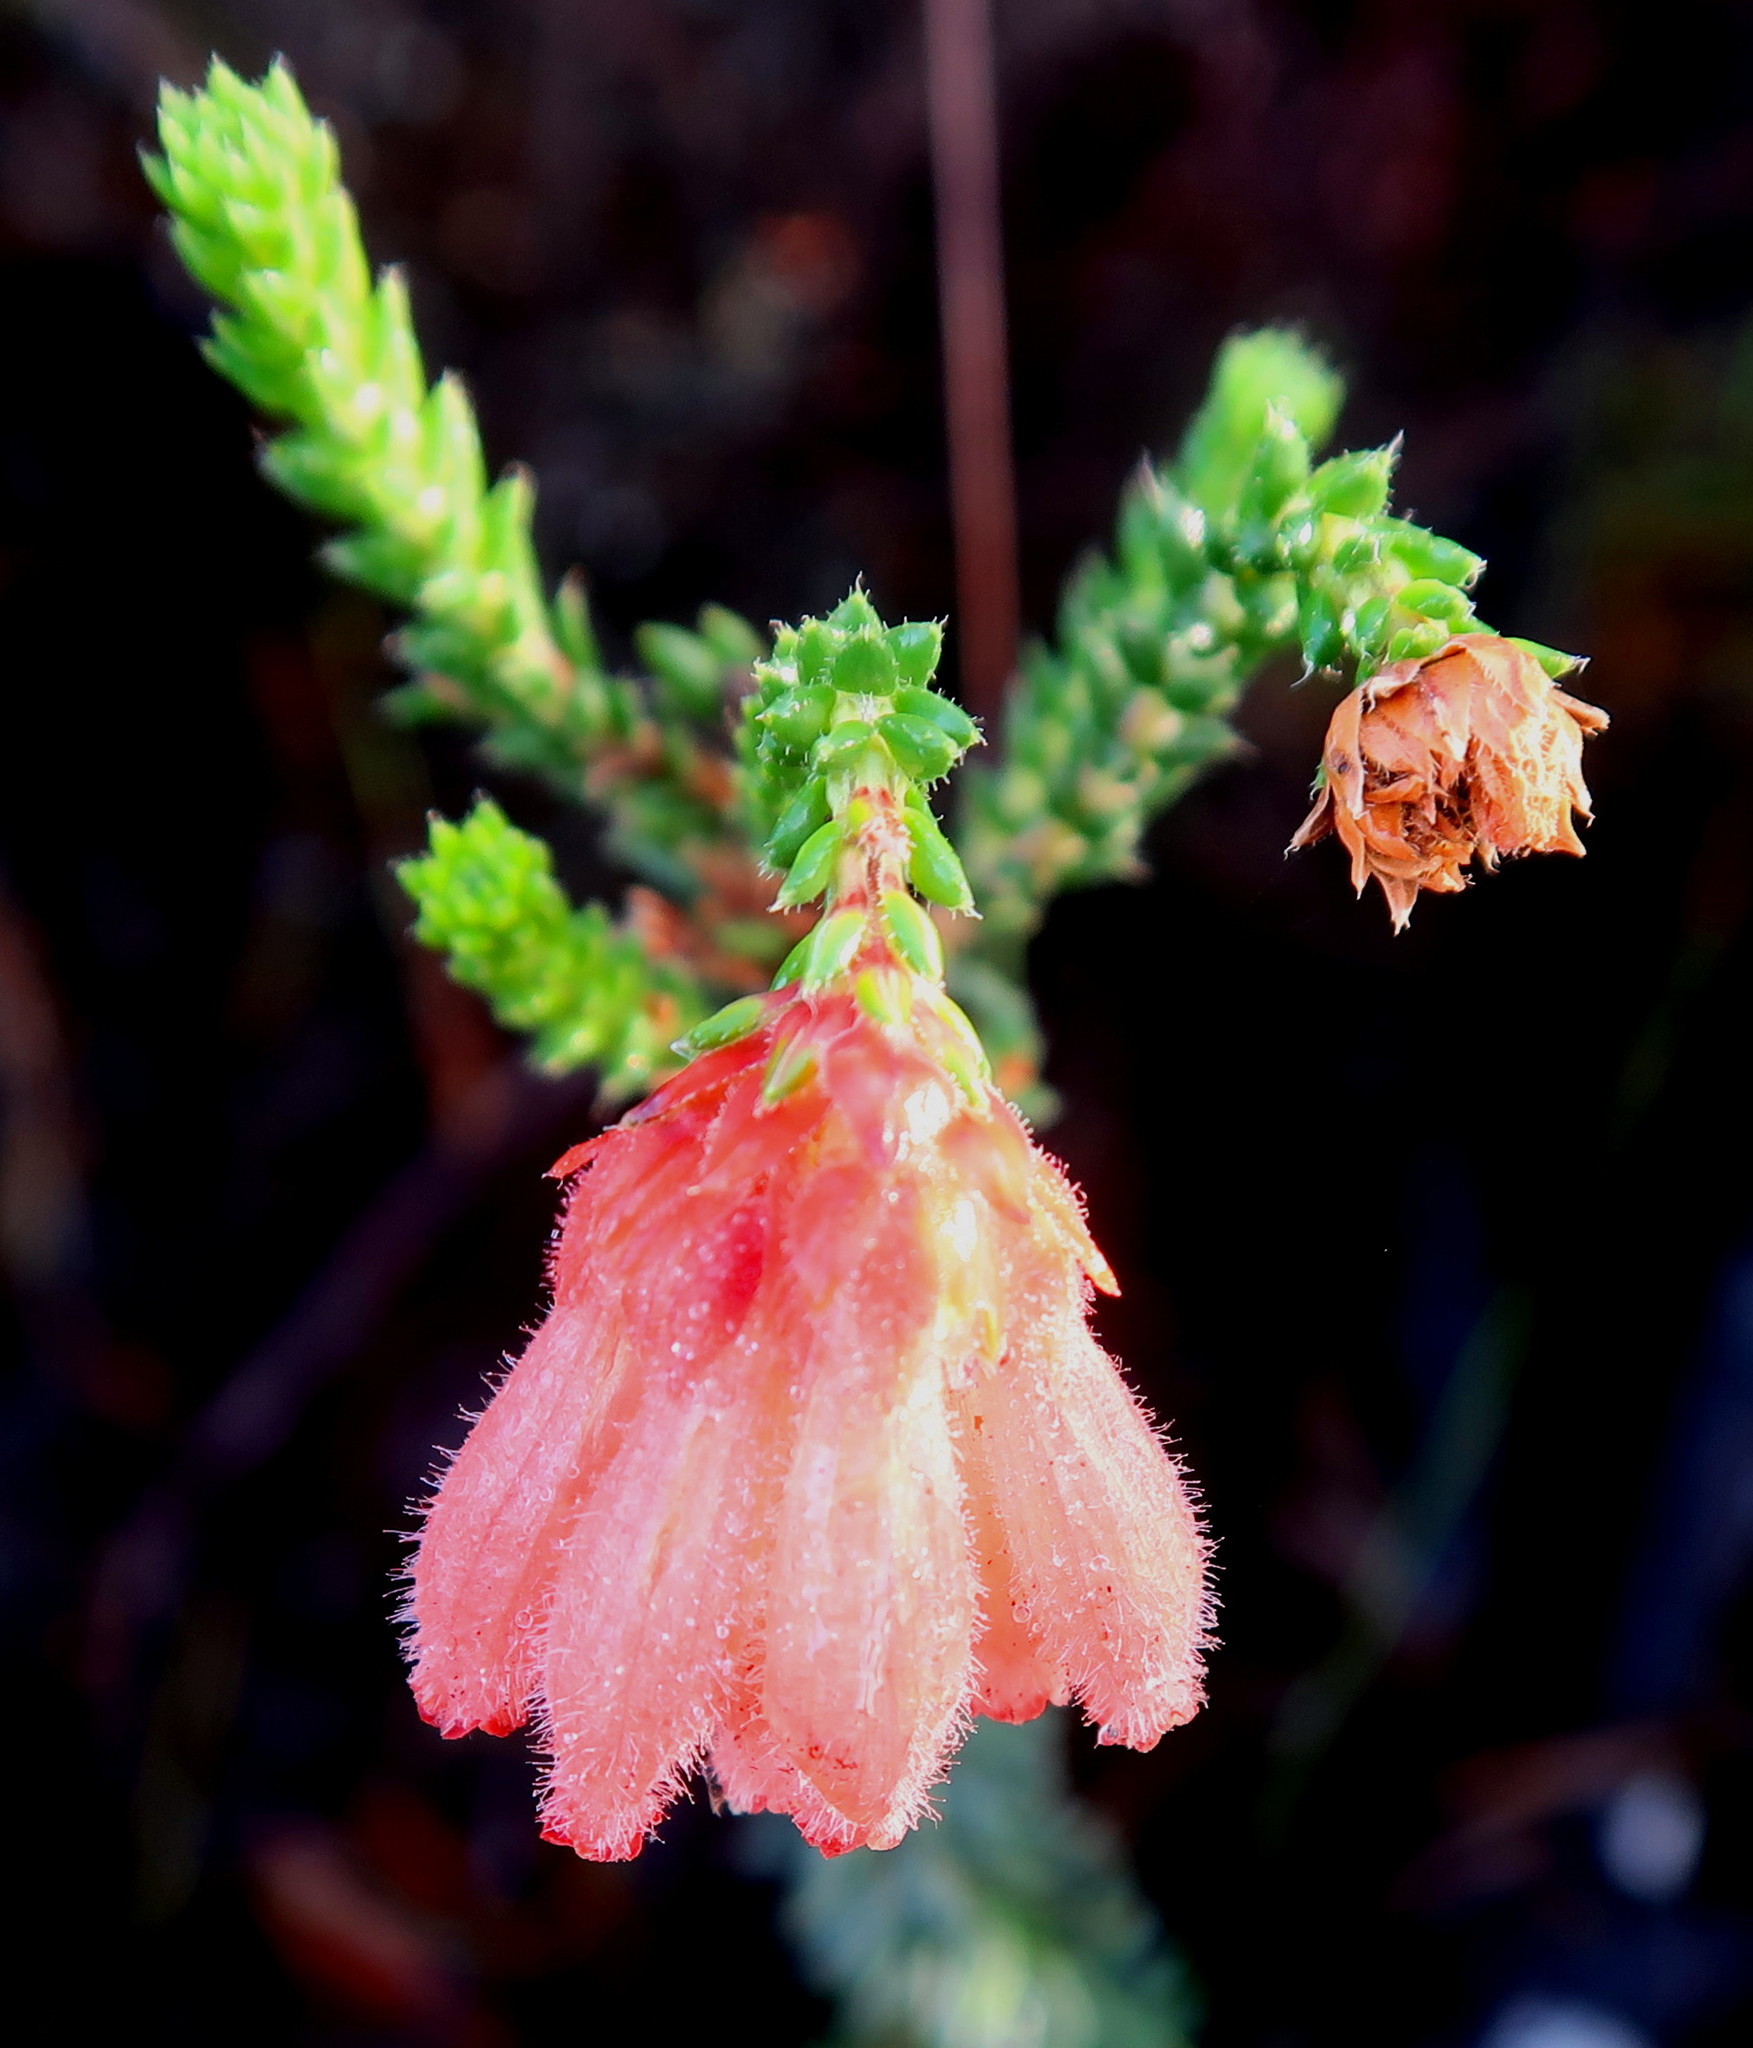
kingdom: Plantae
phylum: Tracheophyta
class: Magnoliopsida
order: Ericales
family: Ericaceae
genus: Erica
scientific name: Erica cerinthoides
